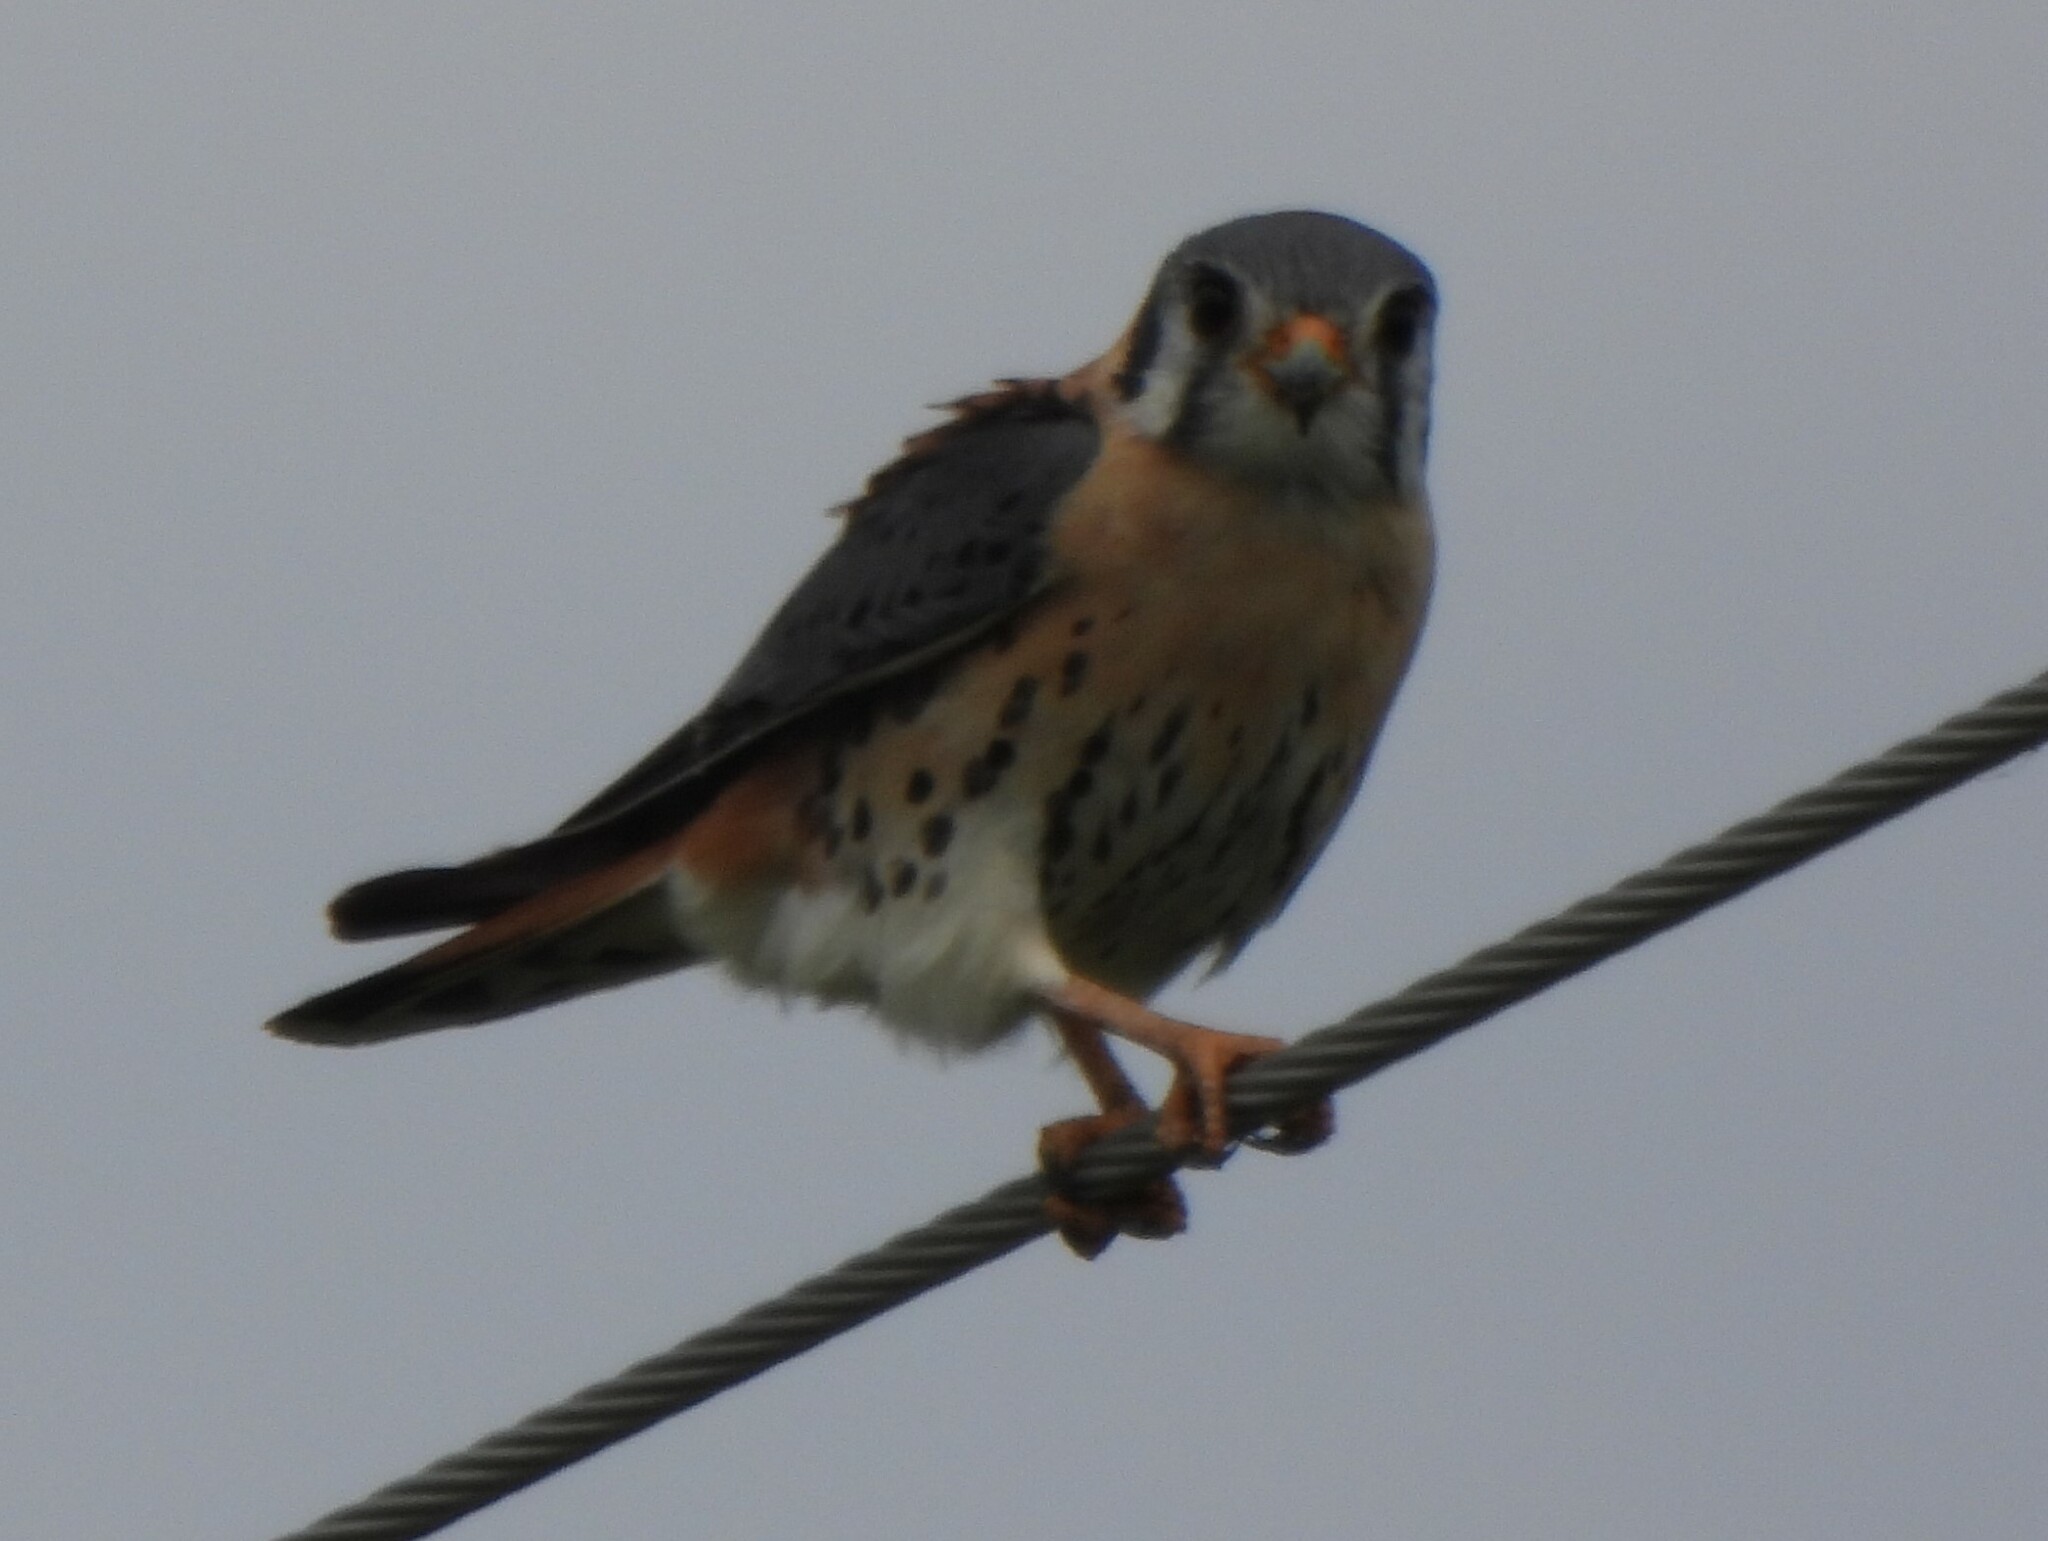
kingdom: Animalia
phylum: Chordata
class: Aves
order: Falconiformes
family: Falconidae
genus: Falco
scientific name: Falco sparverius
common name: American kestrel
